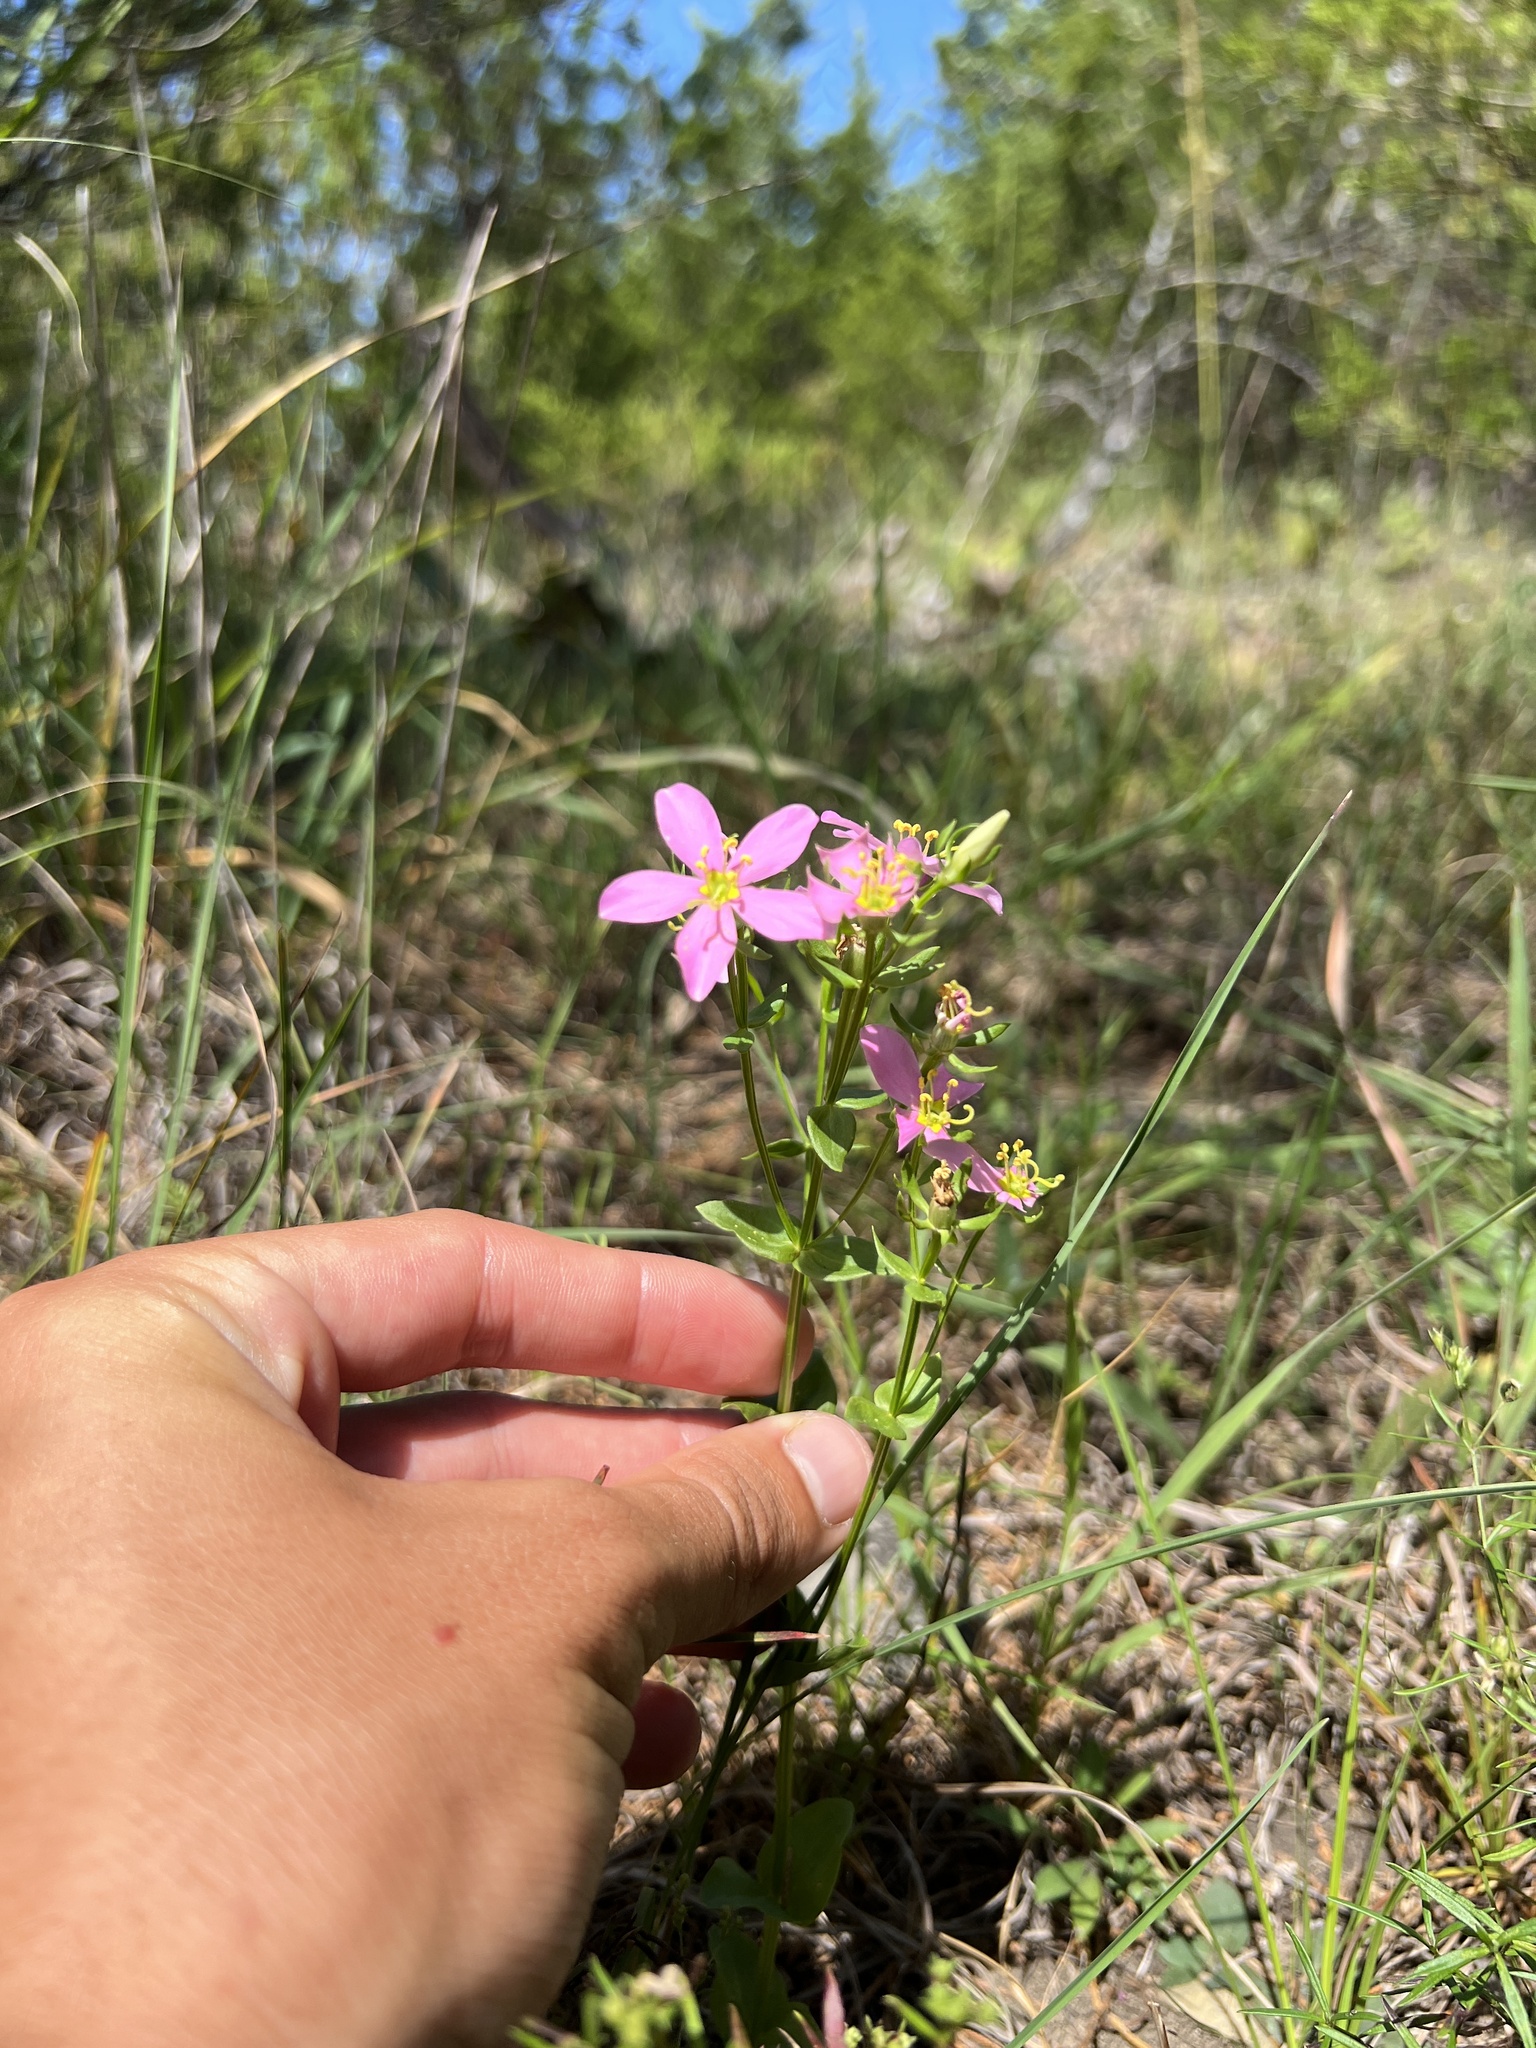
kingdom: Plantae
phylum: Tracheophyta
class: Magnoliopsida
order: Gentianales
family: Gentianaceae
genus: Sabatia
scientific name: Sabatia angularis
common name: Rose-pink
